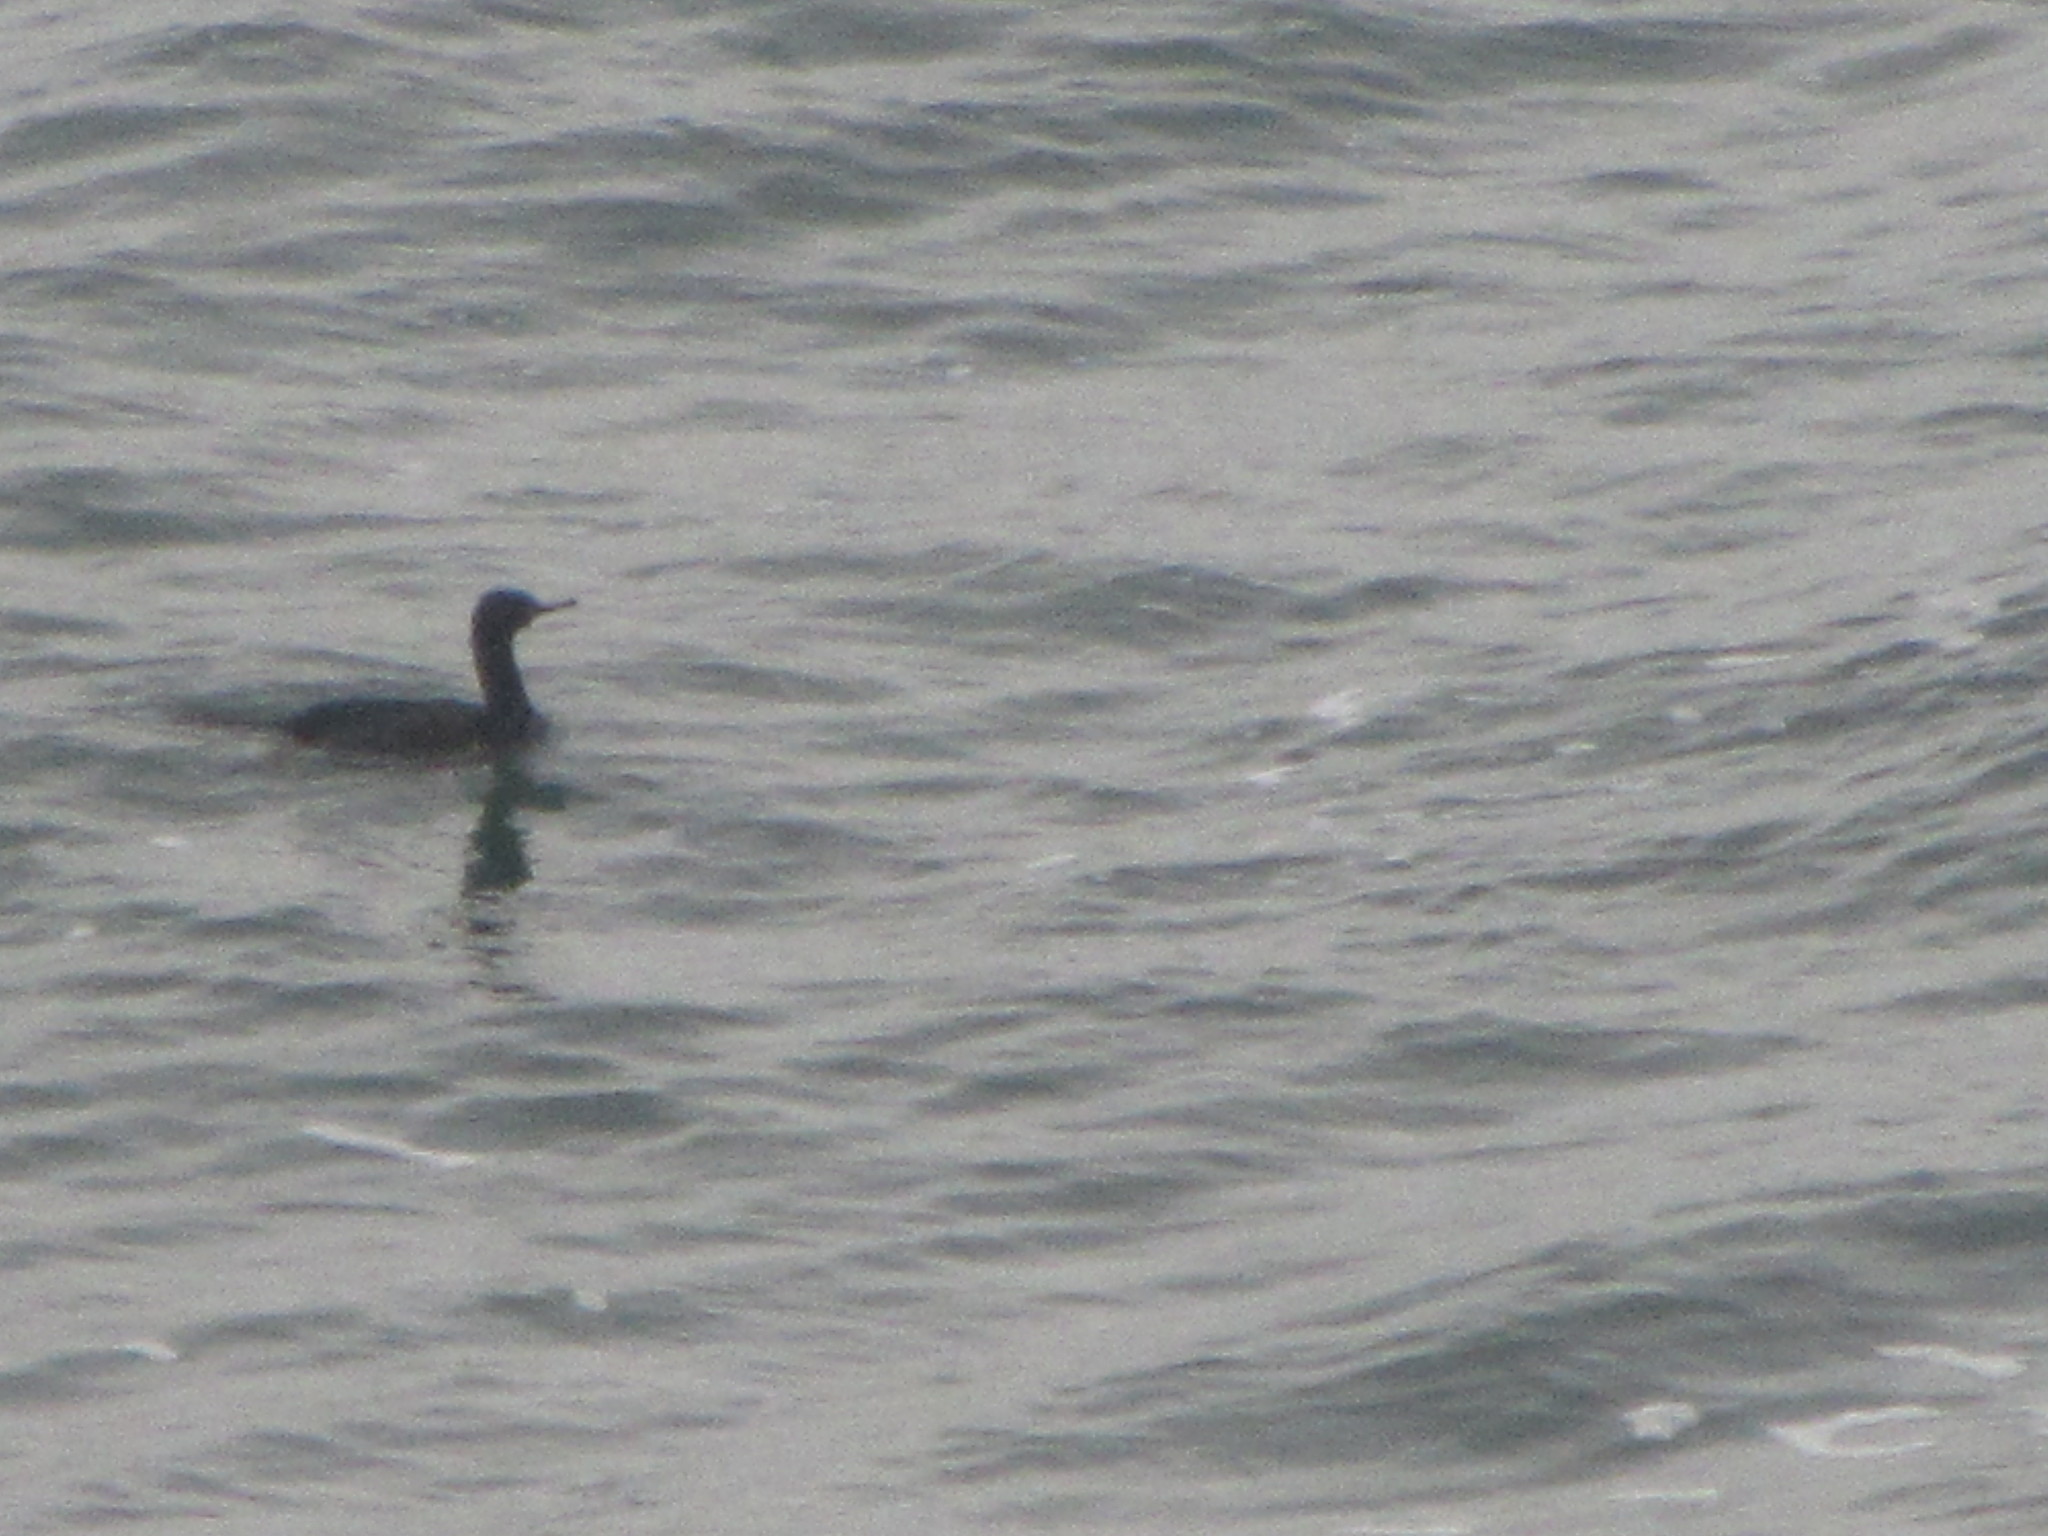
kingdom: Animalia
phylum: Chordata
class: Aves
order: Suliformes
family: Phalacrocoracidae
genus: Phalacrocorax
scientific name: Phalacrocorax pelagicus
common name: Pelagic cormorant
